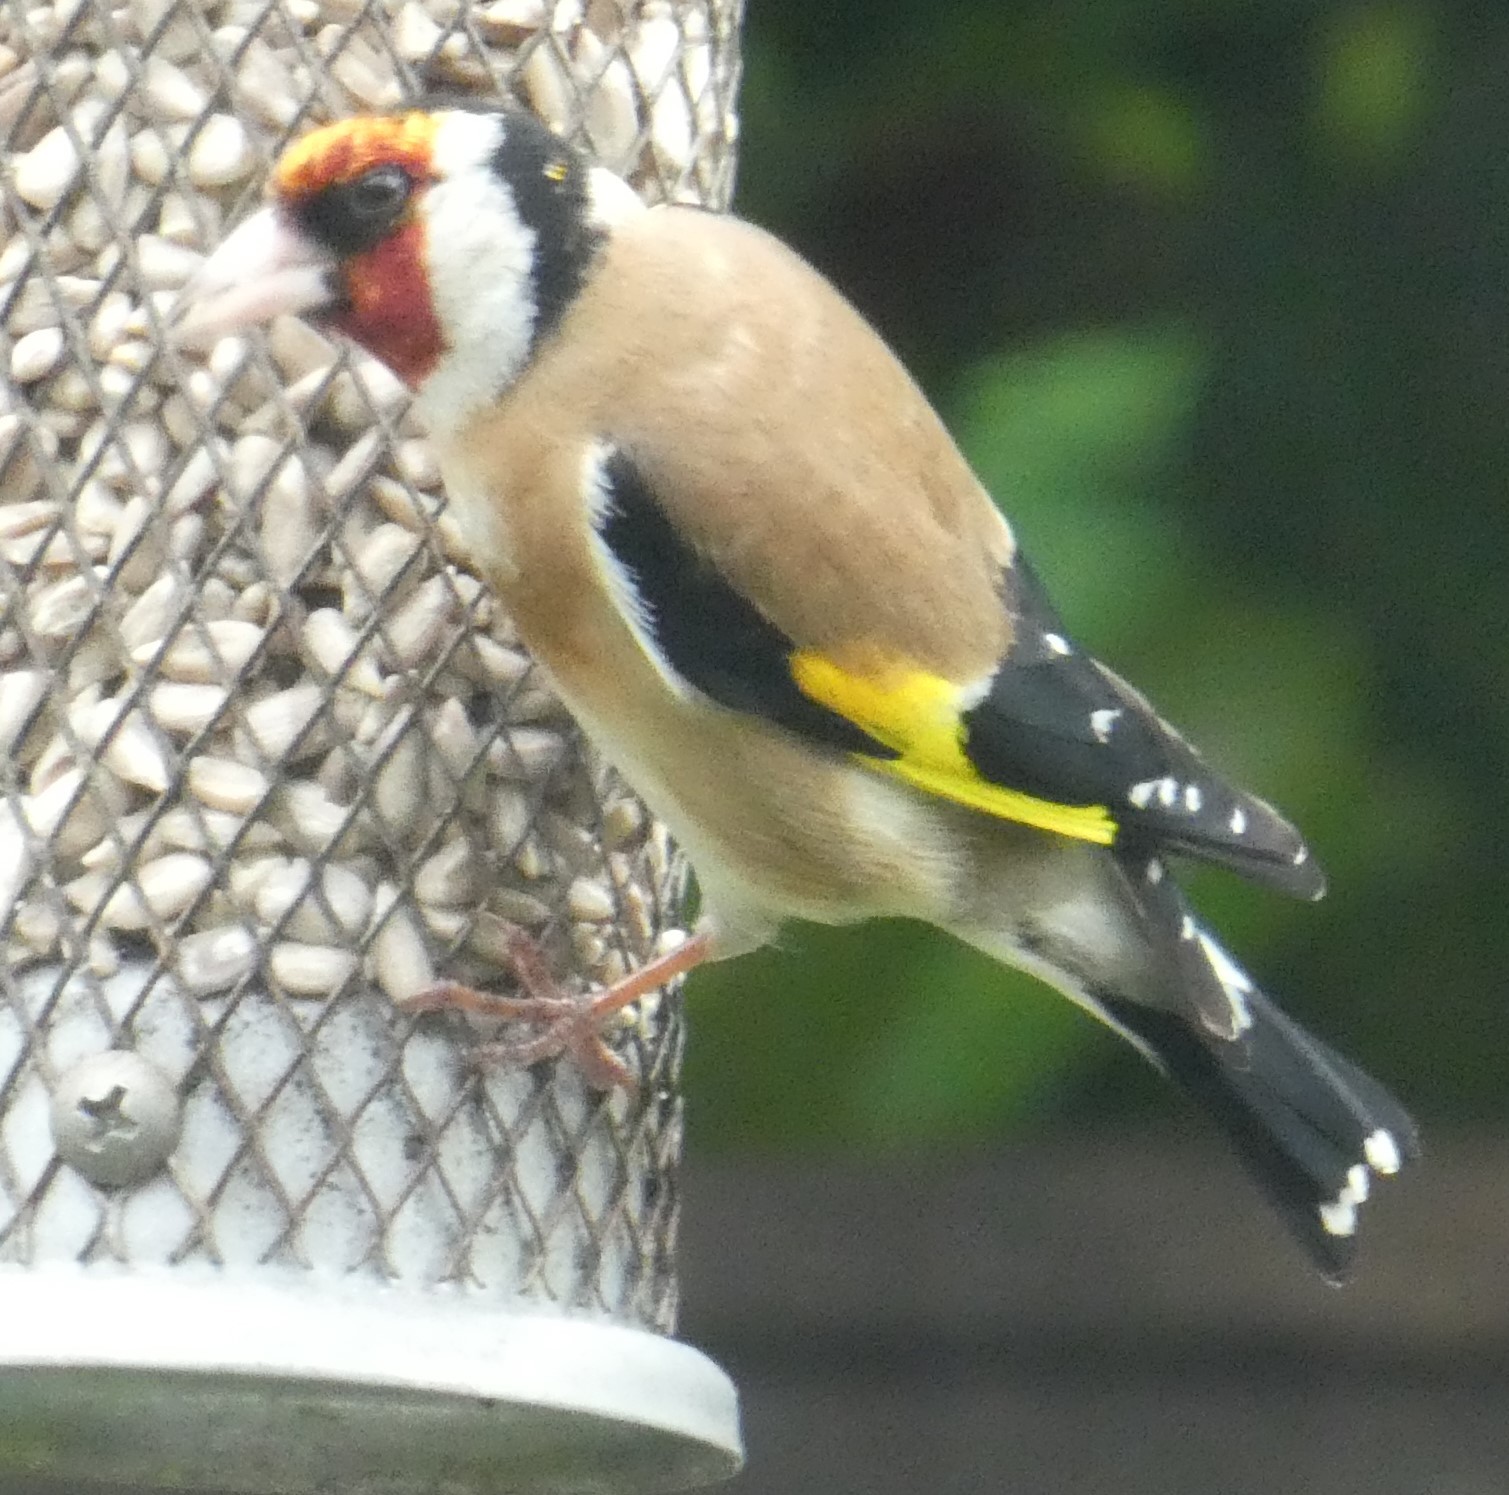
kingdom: Animalia
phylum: Chordata
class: Aves
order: Passeriformes
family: Fringillidae
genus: Carduelis
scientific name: Carduelis carduelis
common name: European goldfinch
